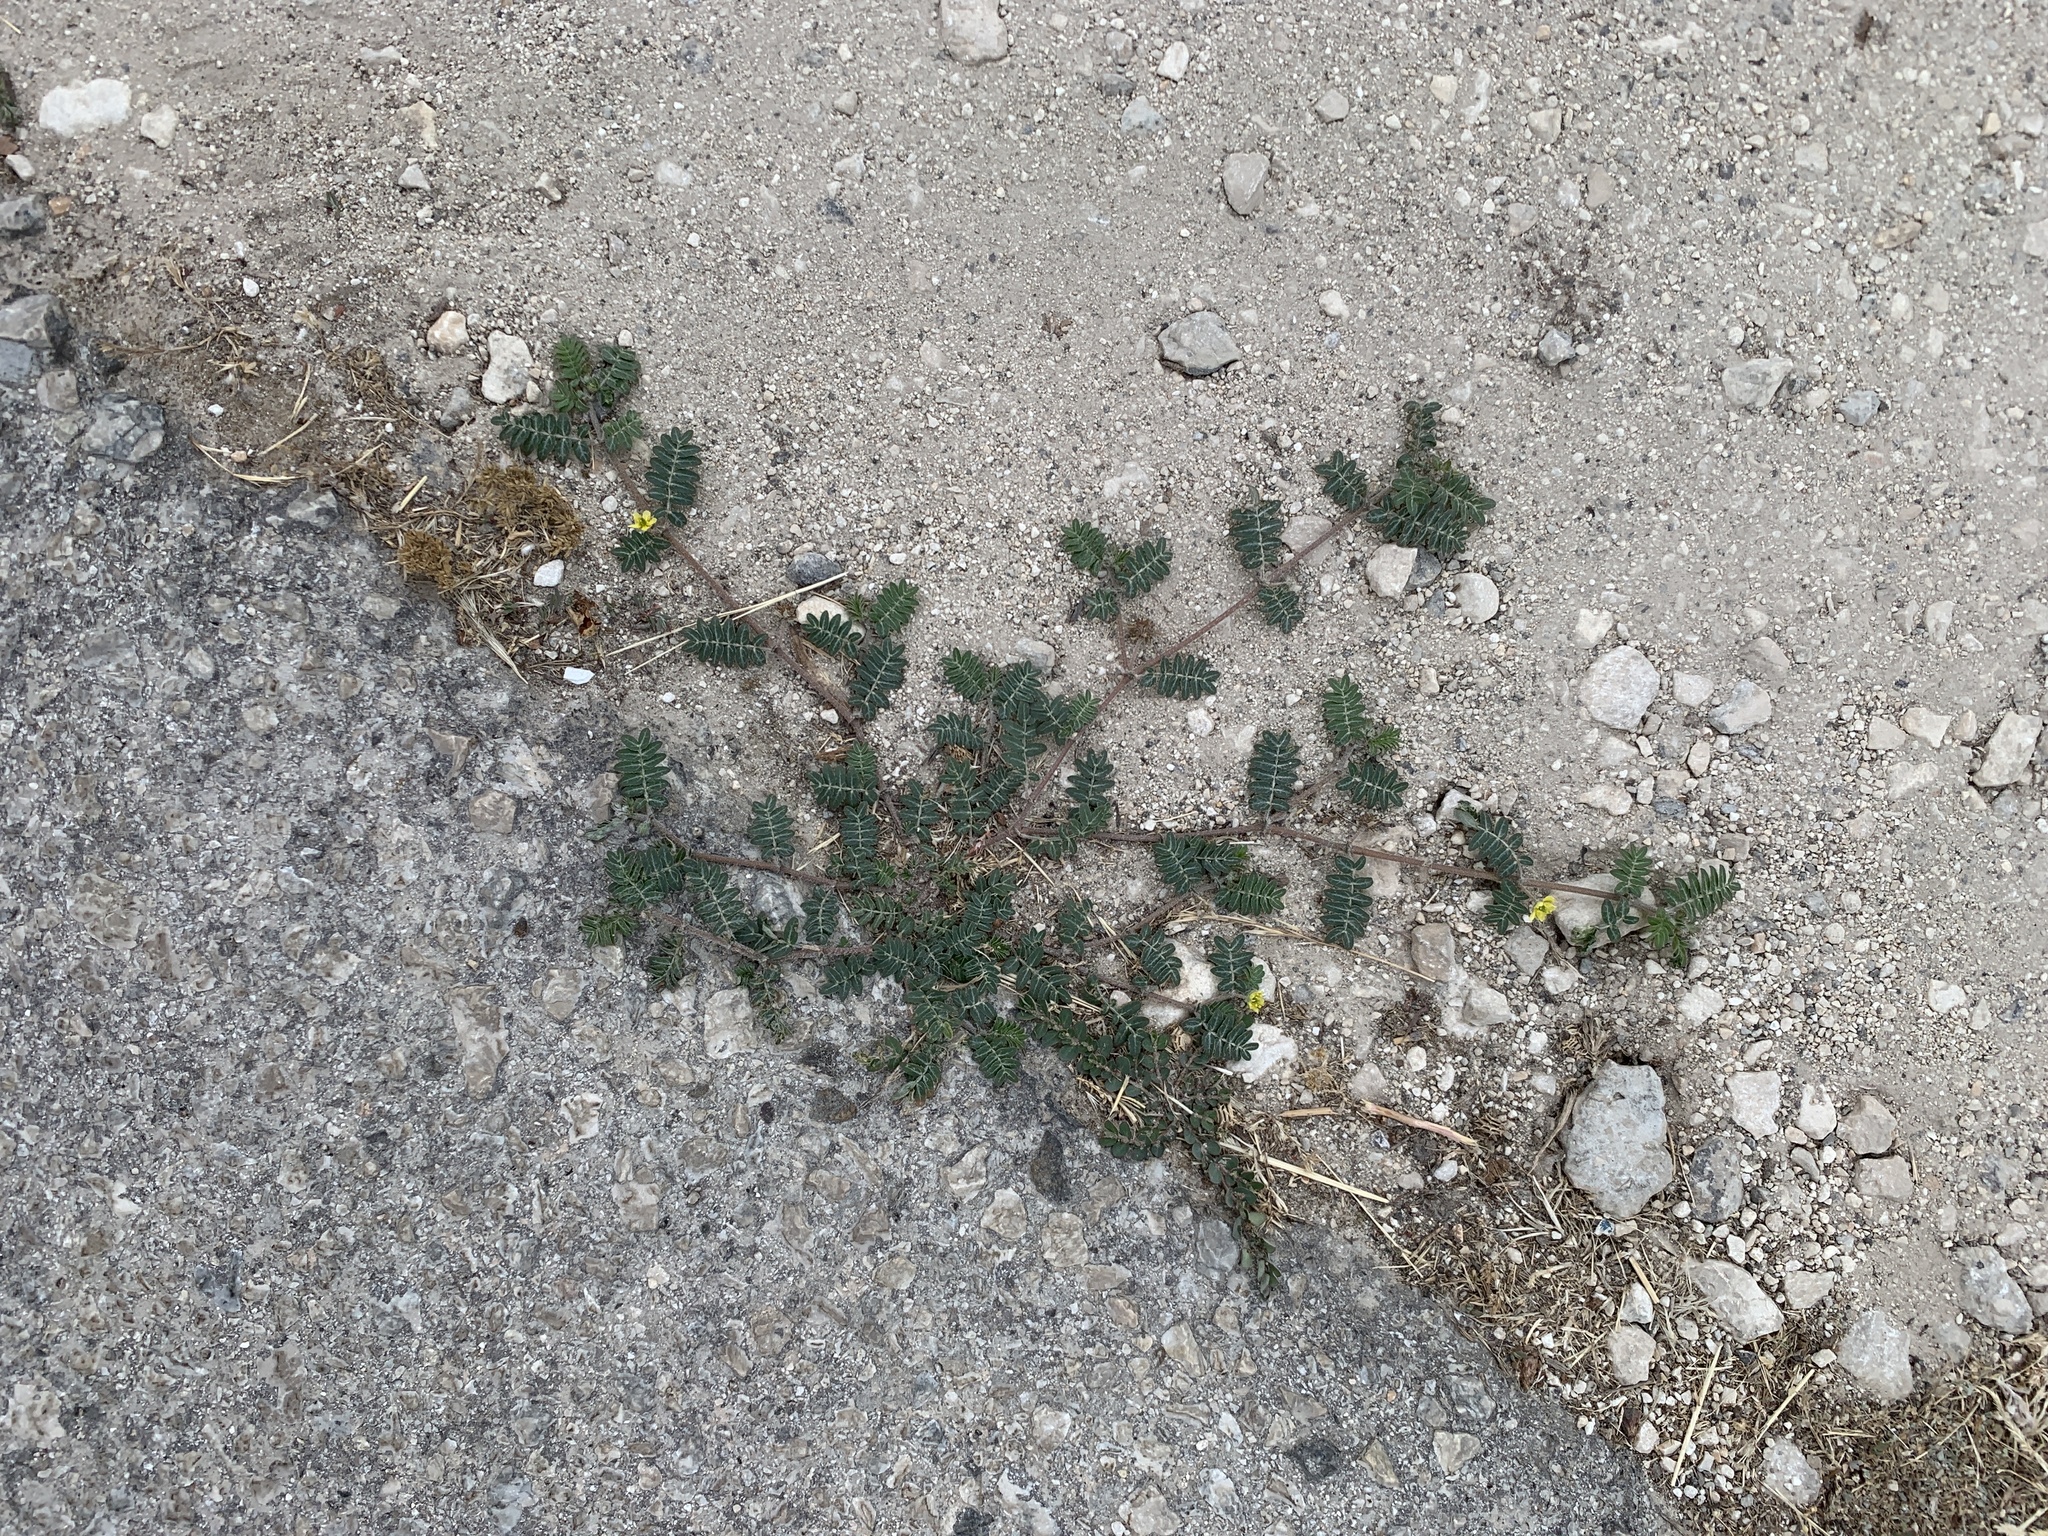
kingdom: Plantae
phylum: Tracheophyta
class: Magnoliopsida
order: Zygophyllales
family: Zygophyllaceae
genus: Tribulus
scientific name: Tribulus terrestris
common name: Puncturevine
